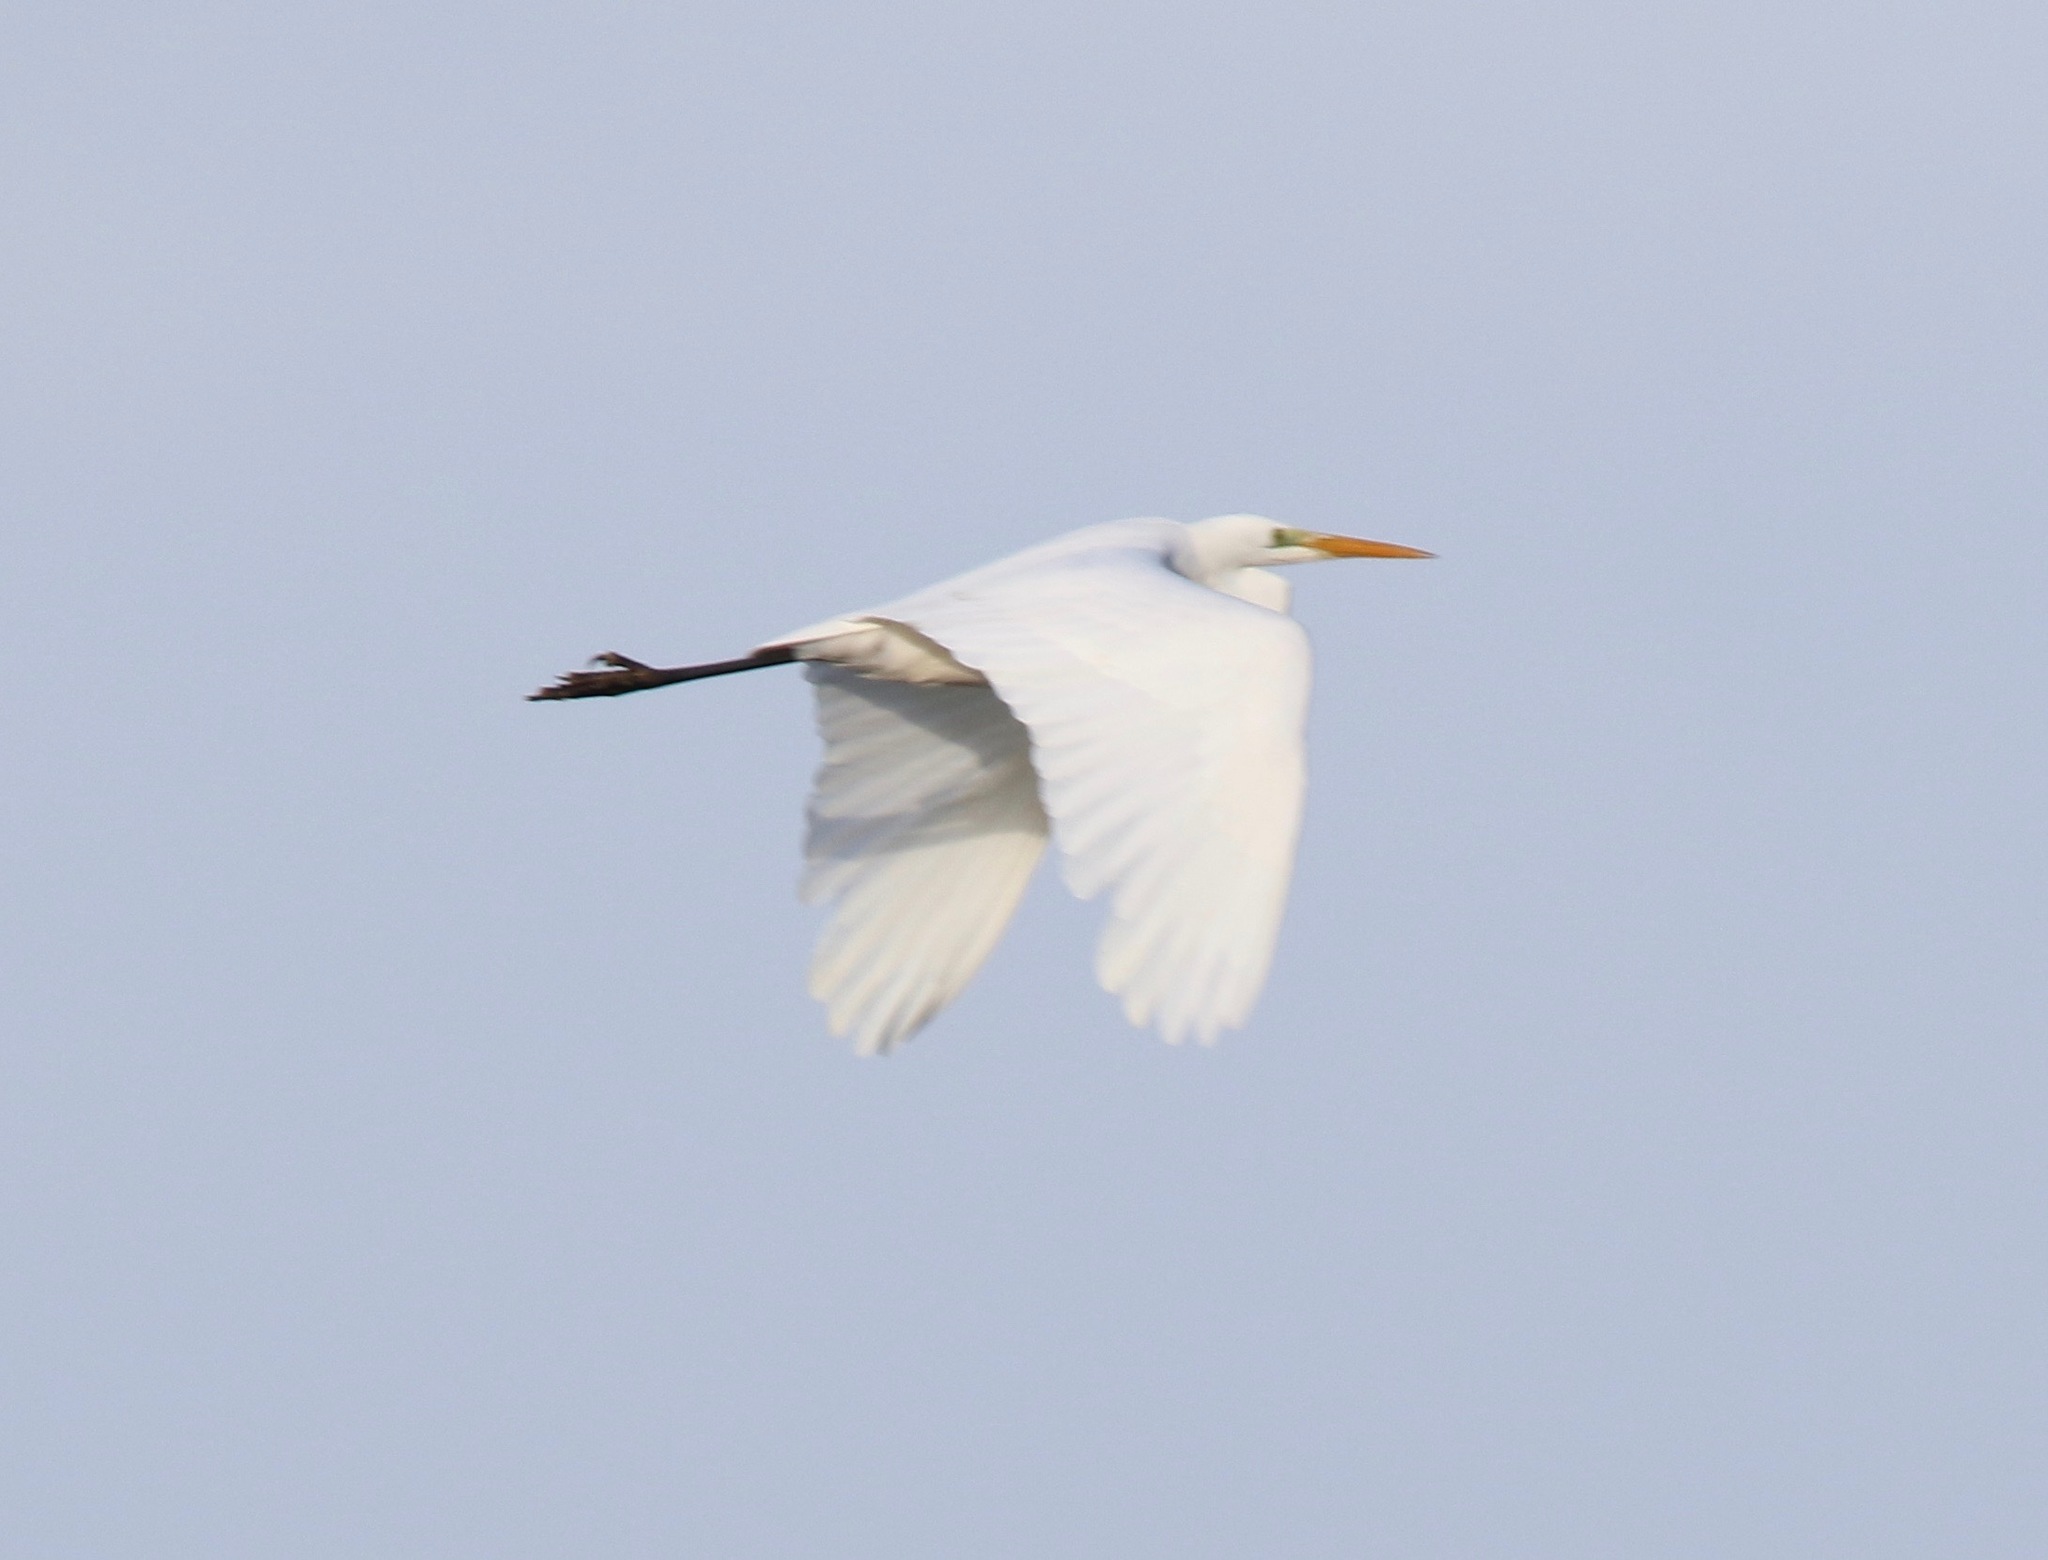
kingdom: Animalia
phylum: Chordata
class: Aves
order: Pelecaniformes
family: Ardeidae
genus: Ardea
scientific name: Ardea alba
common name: Great egret
